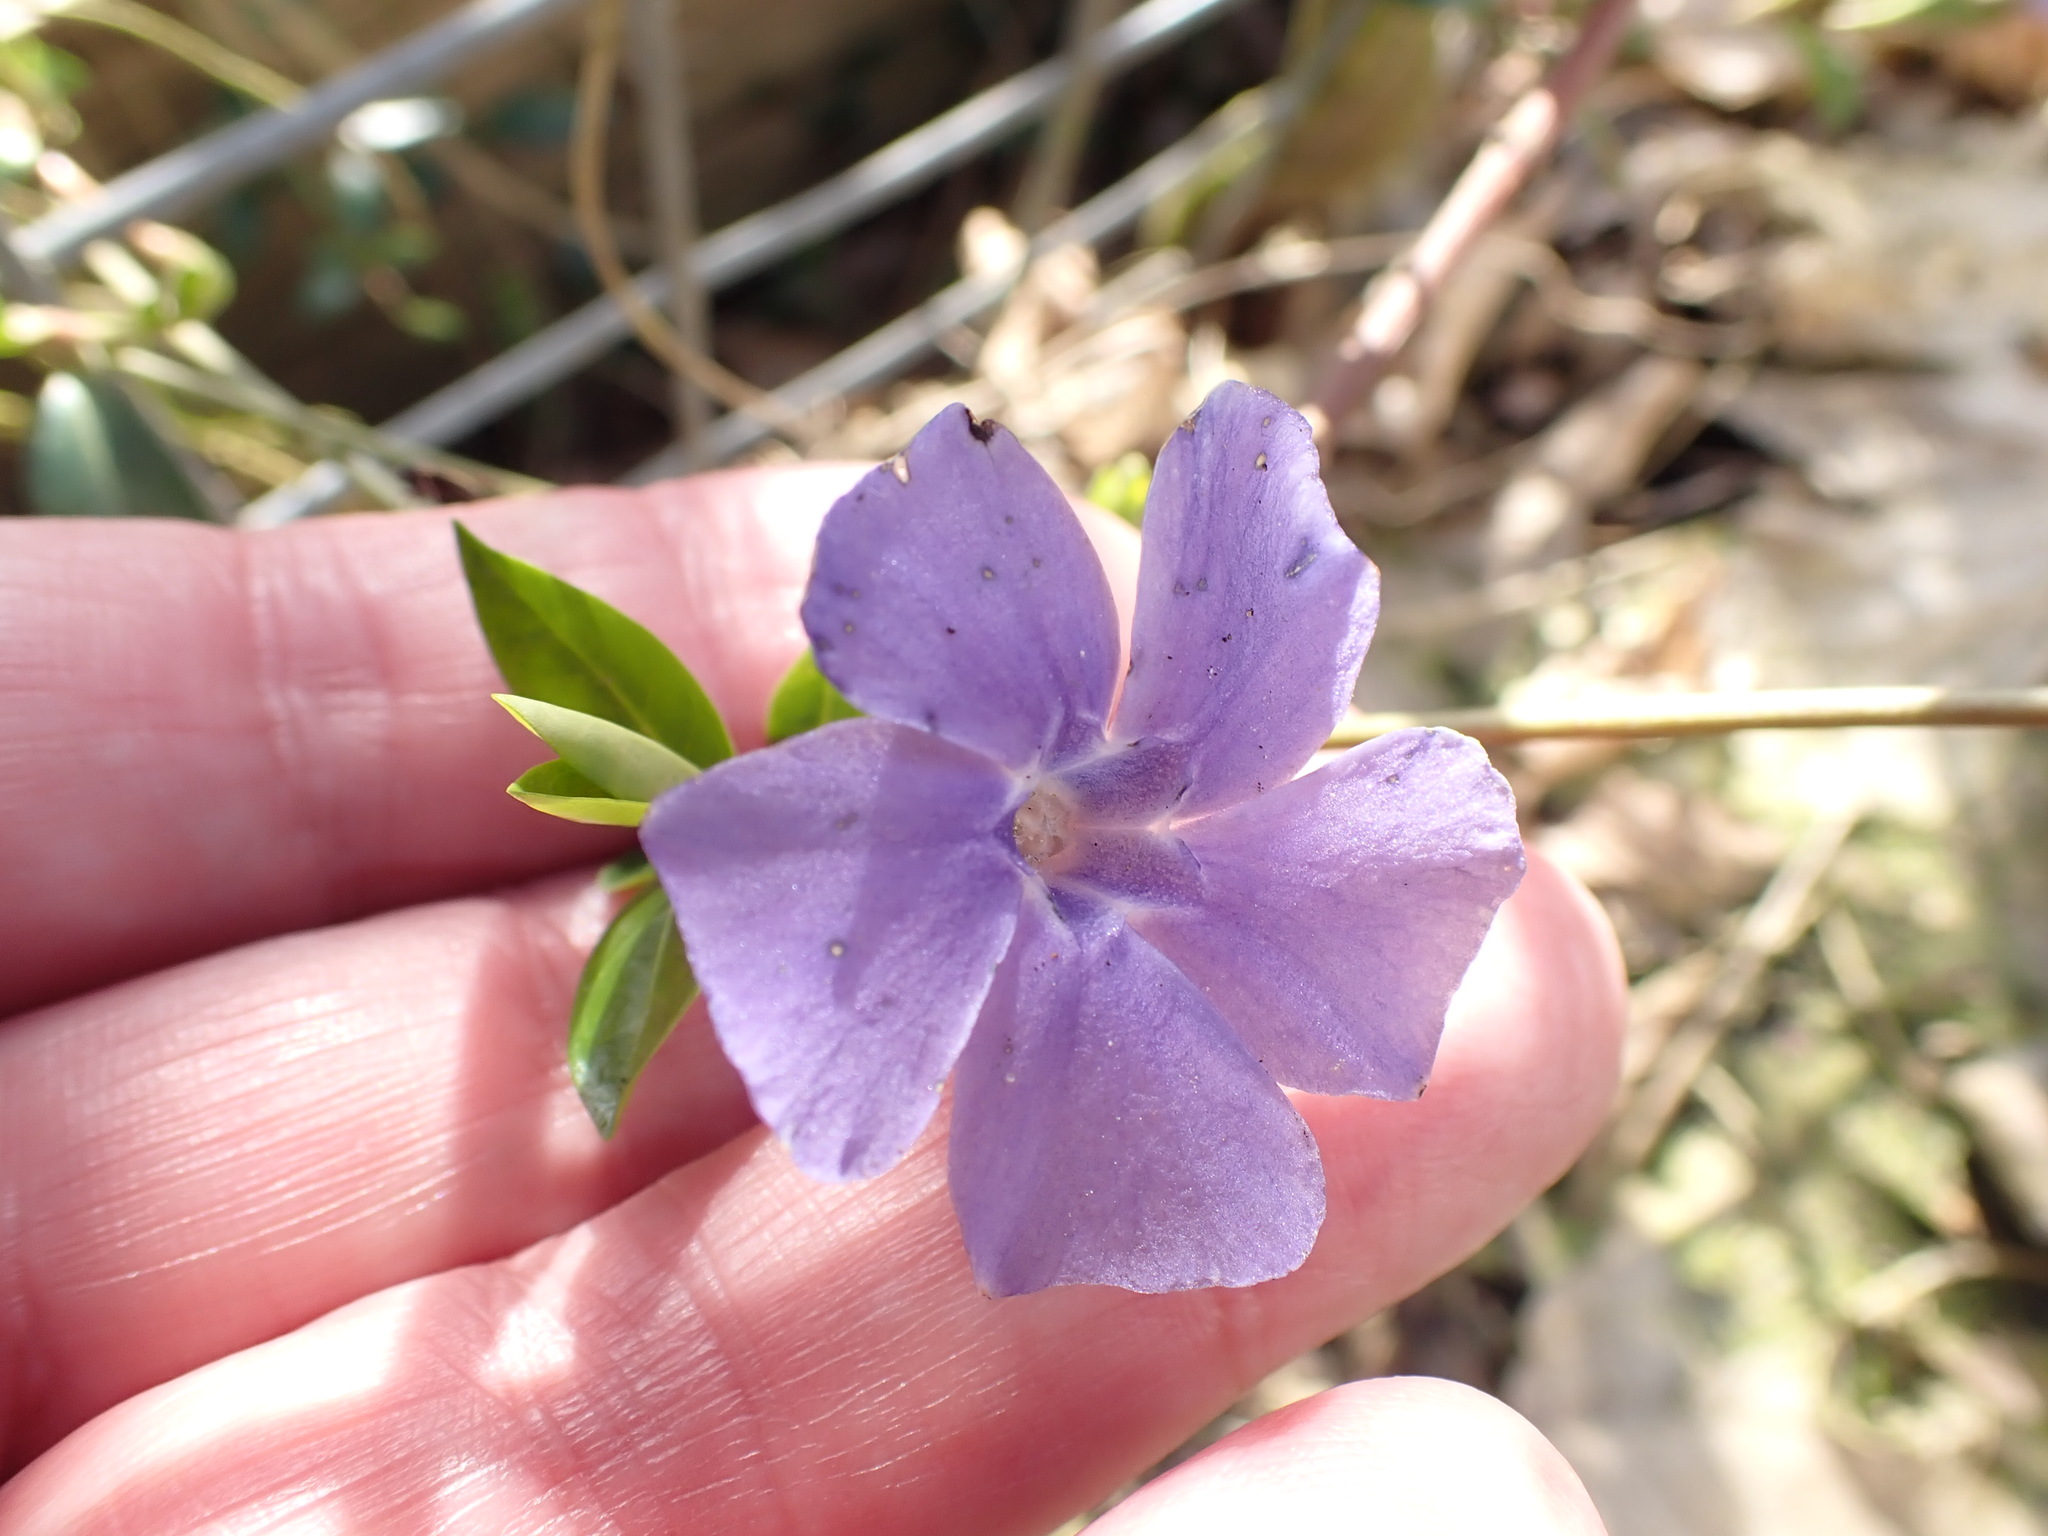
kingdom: Plantae
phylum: Tracheophyta
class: Magnoliopsida
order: Gentianales
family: Apocynaceae
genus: Vinca
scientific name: Vinca minor
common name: Lesser periwinkle
